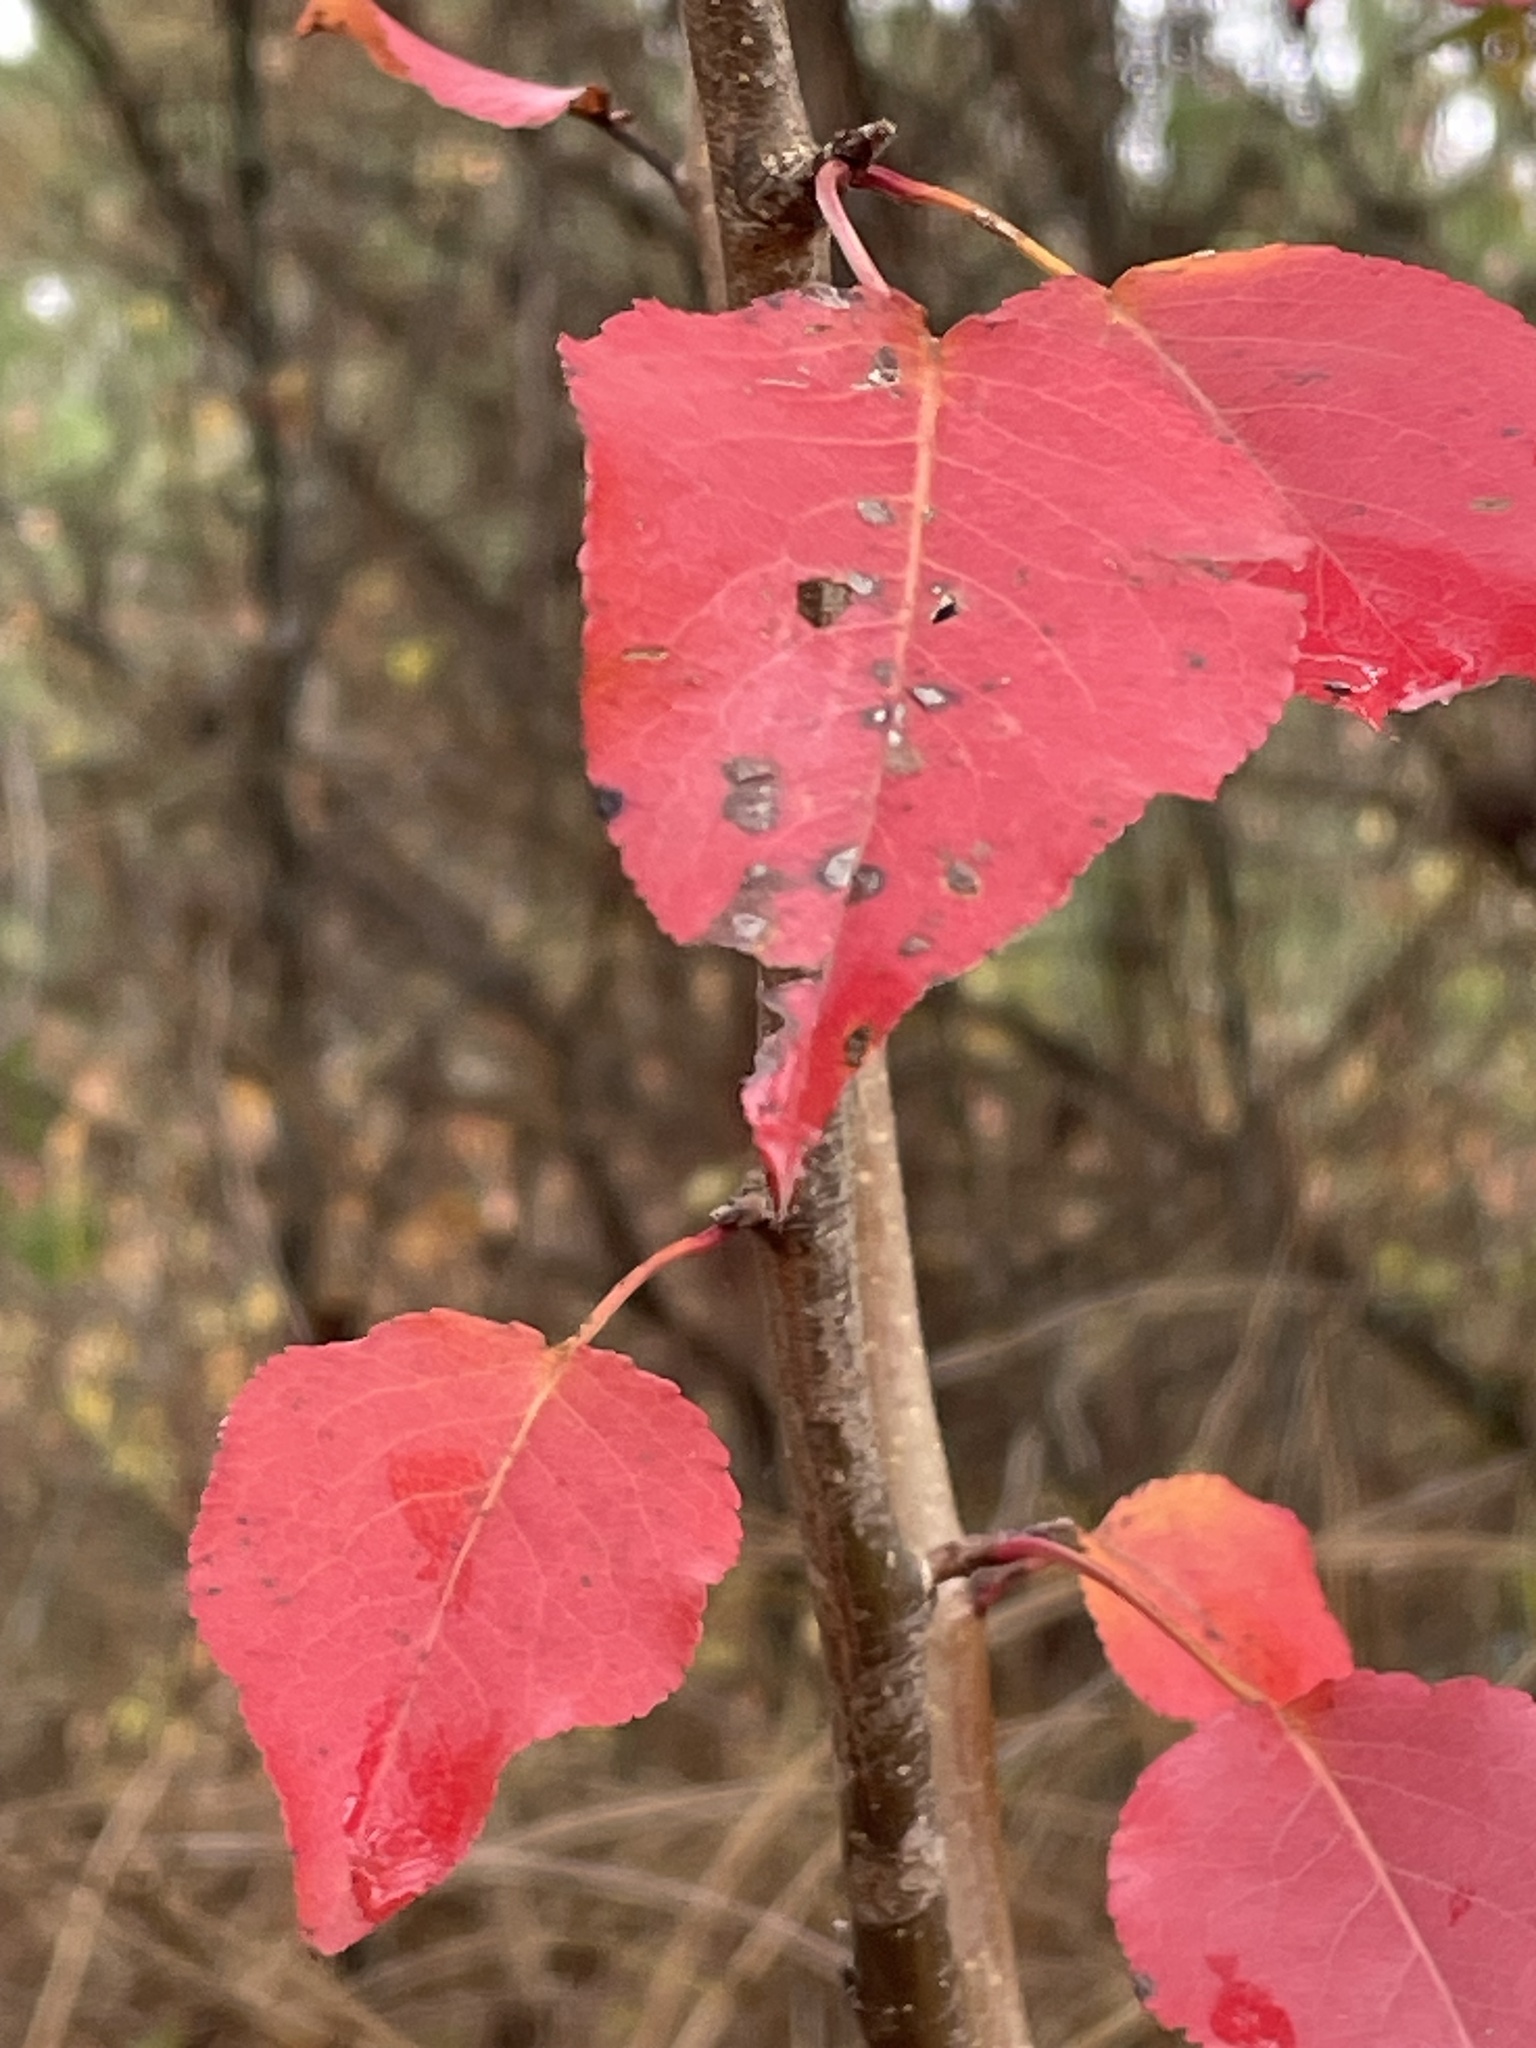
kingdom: Plantae
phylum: Tracheophyta
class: Magnoliopsida
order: Rosales
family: Rosaceae
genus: Pyrus
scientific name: Pyrus calleryana
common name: Callery pear
